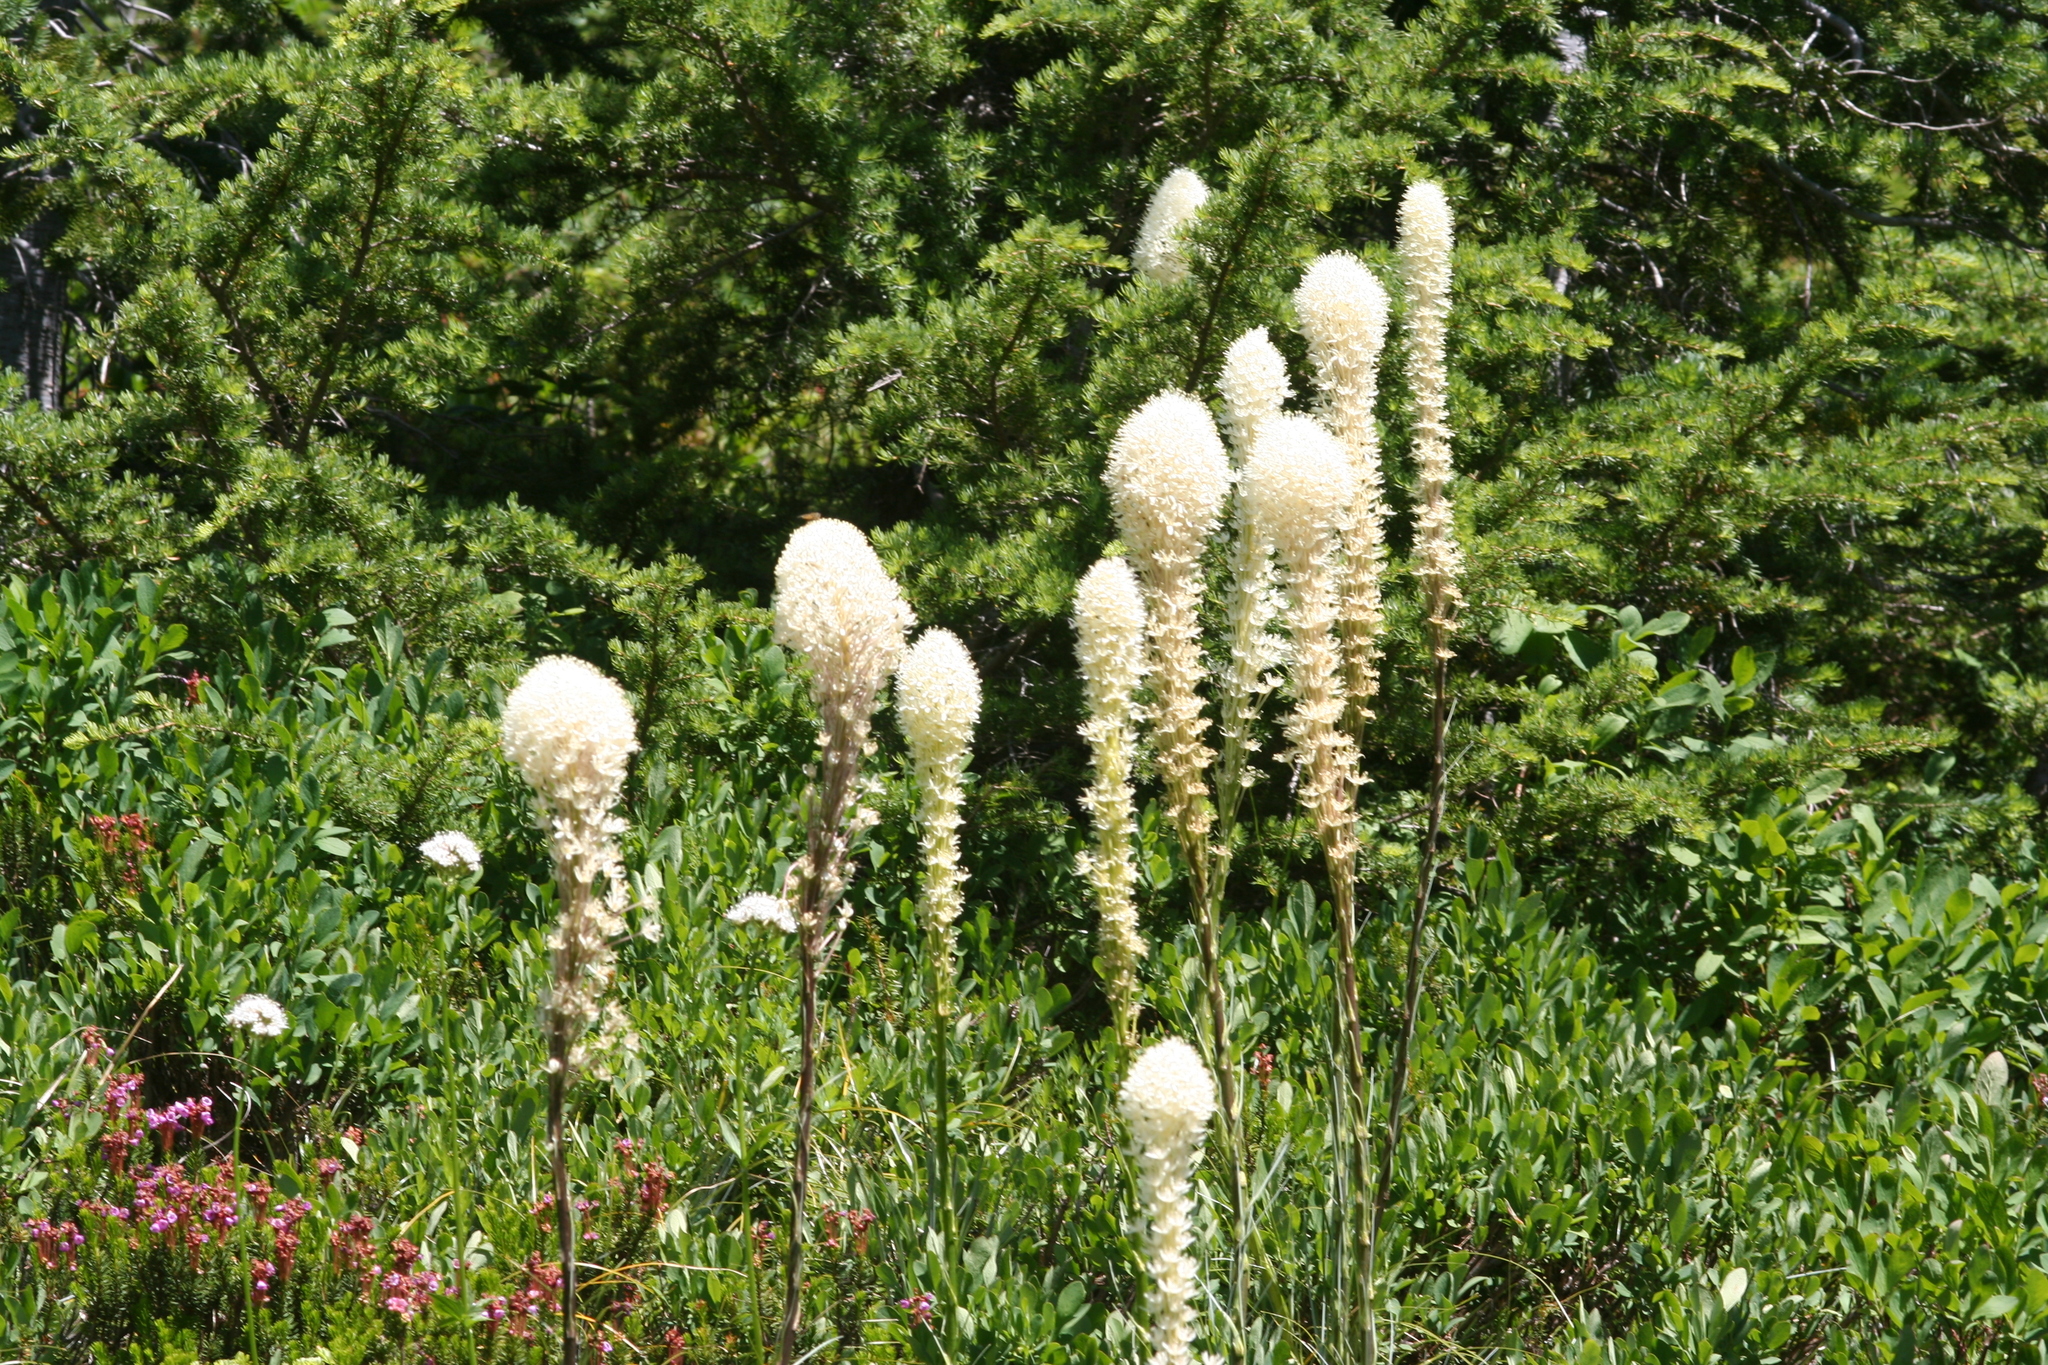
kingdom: Plantae
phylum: Tracheophyta
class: Liliopsida
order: Liliales
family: Melanthiaceae
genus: Xerophyllum
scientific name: Xerophyllum tenax
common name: Bear-grass
